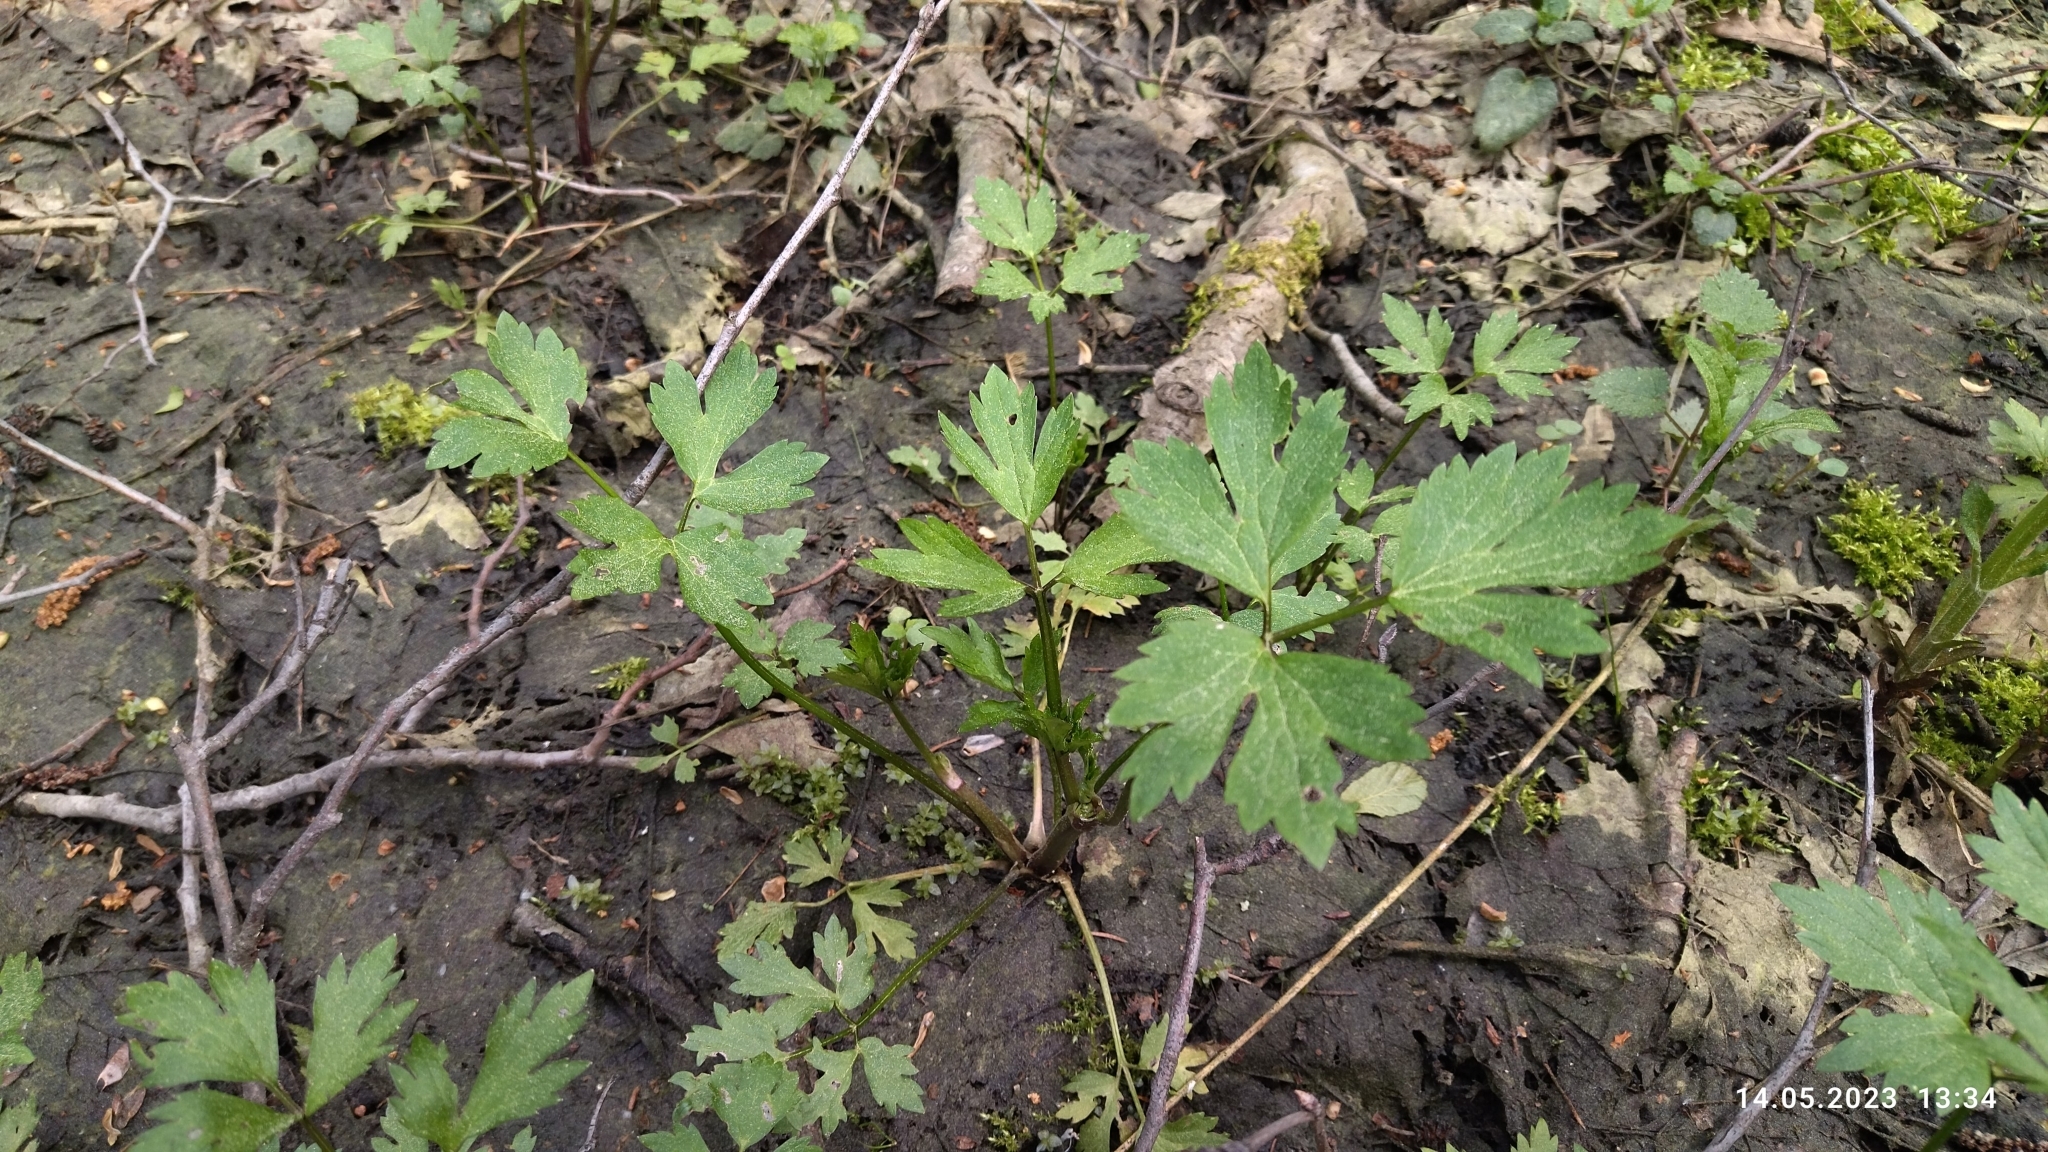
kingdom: Plantae
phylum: Tracheophyta
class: Magnoliopsida
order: Ranunculales
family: Ranunculaceae
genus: Ranunculus
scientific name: Ranunculus repens
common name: Creeping buttercup
